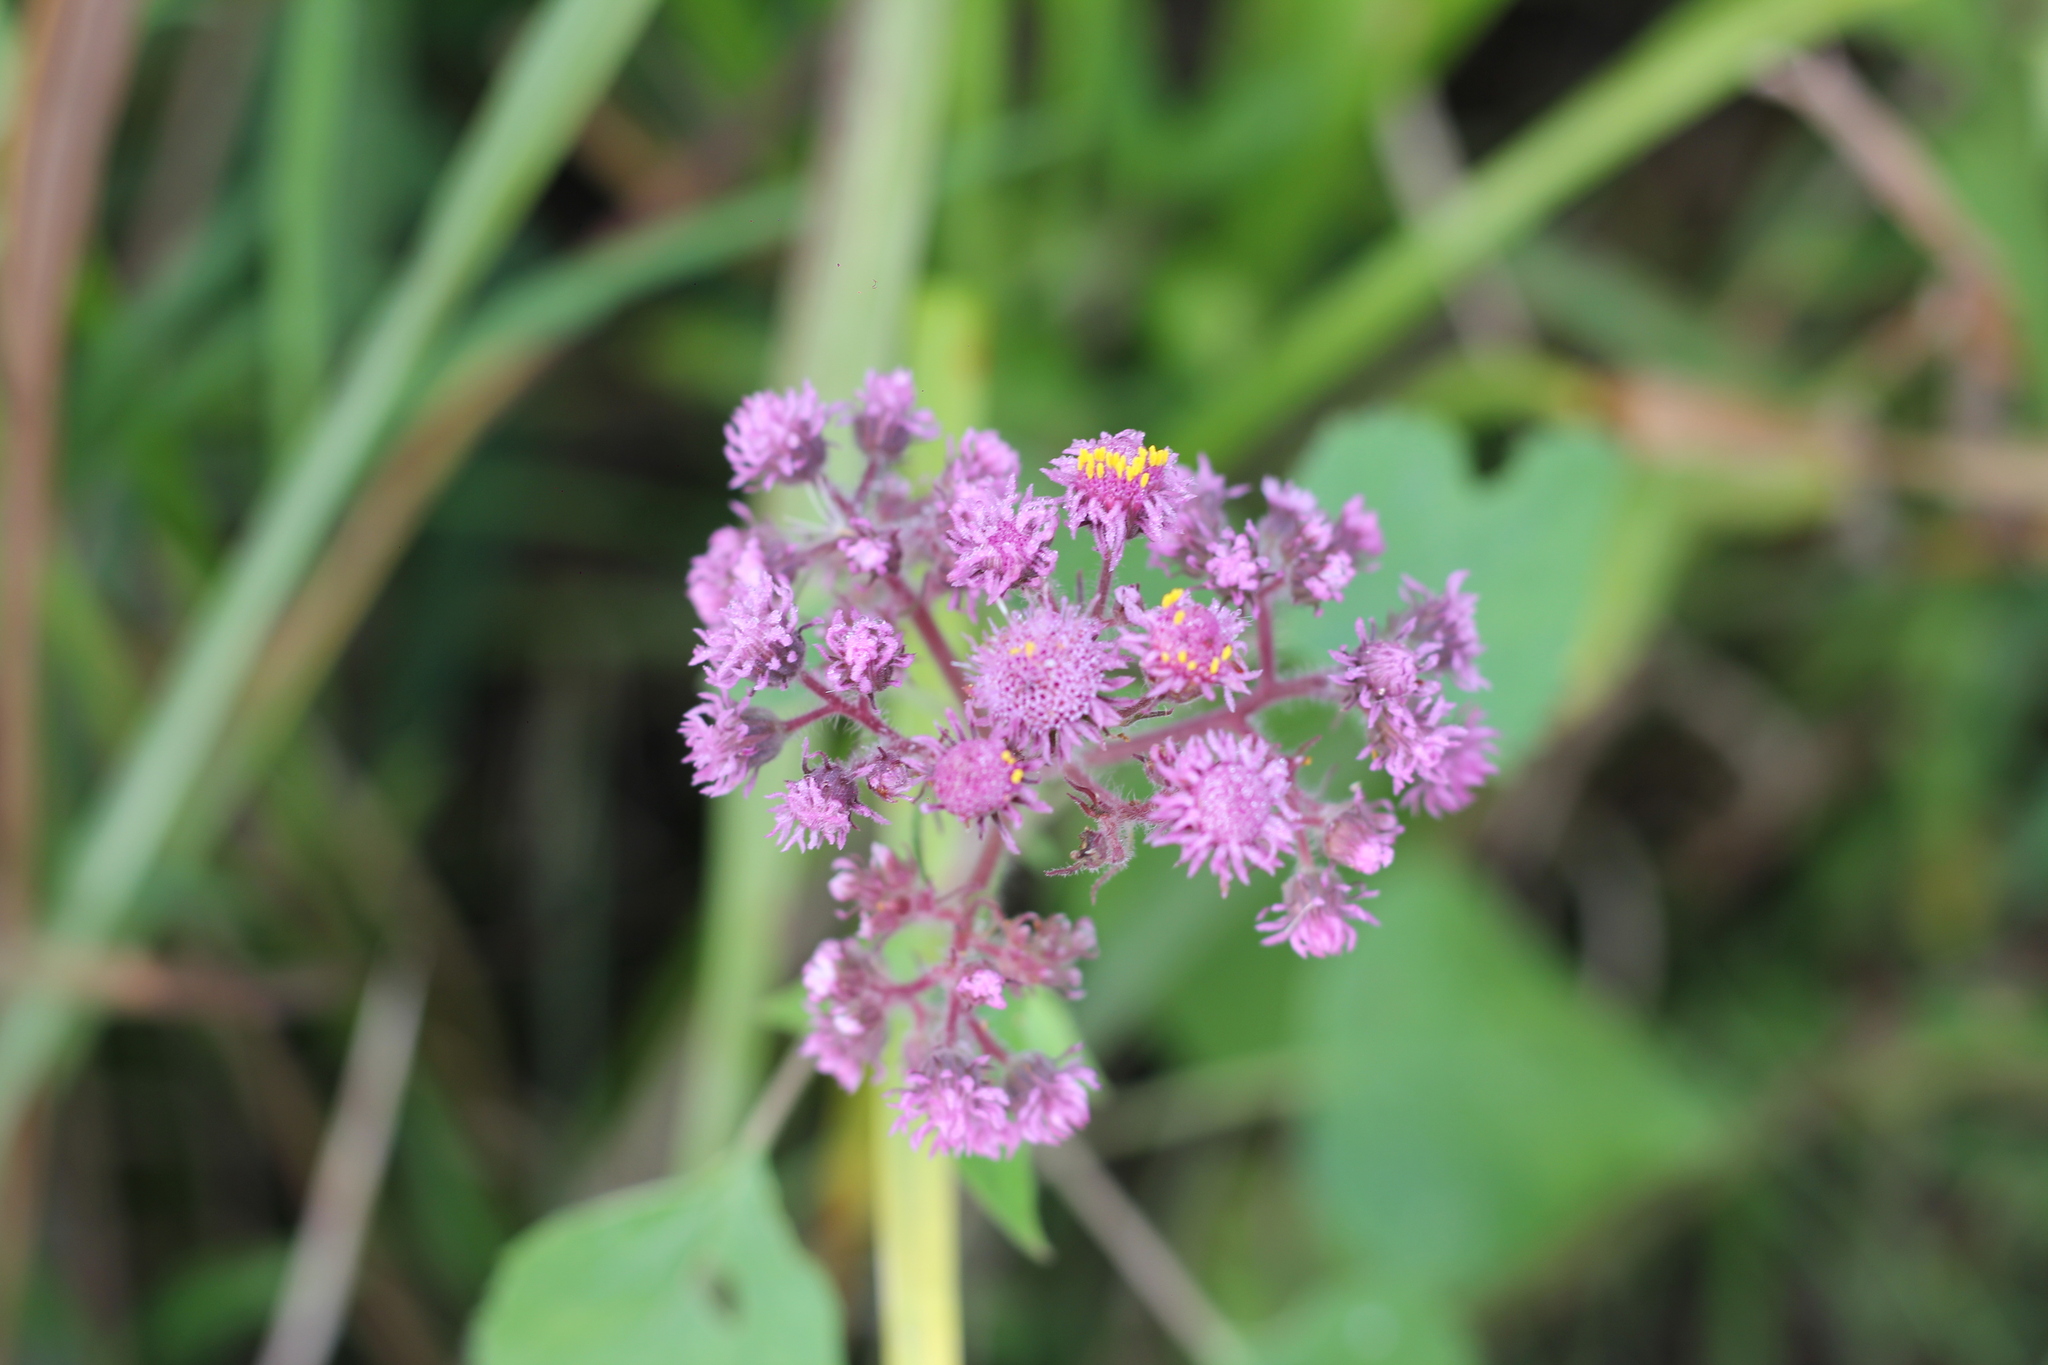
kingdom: Plantae
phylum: Tracheophyta
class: Magnoliopsida
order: Asterales
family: Asteraceae
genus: Urolepis
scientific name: Urolepis hecatantha
